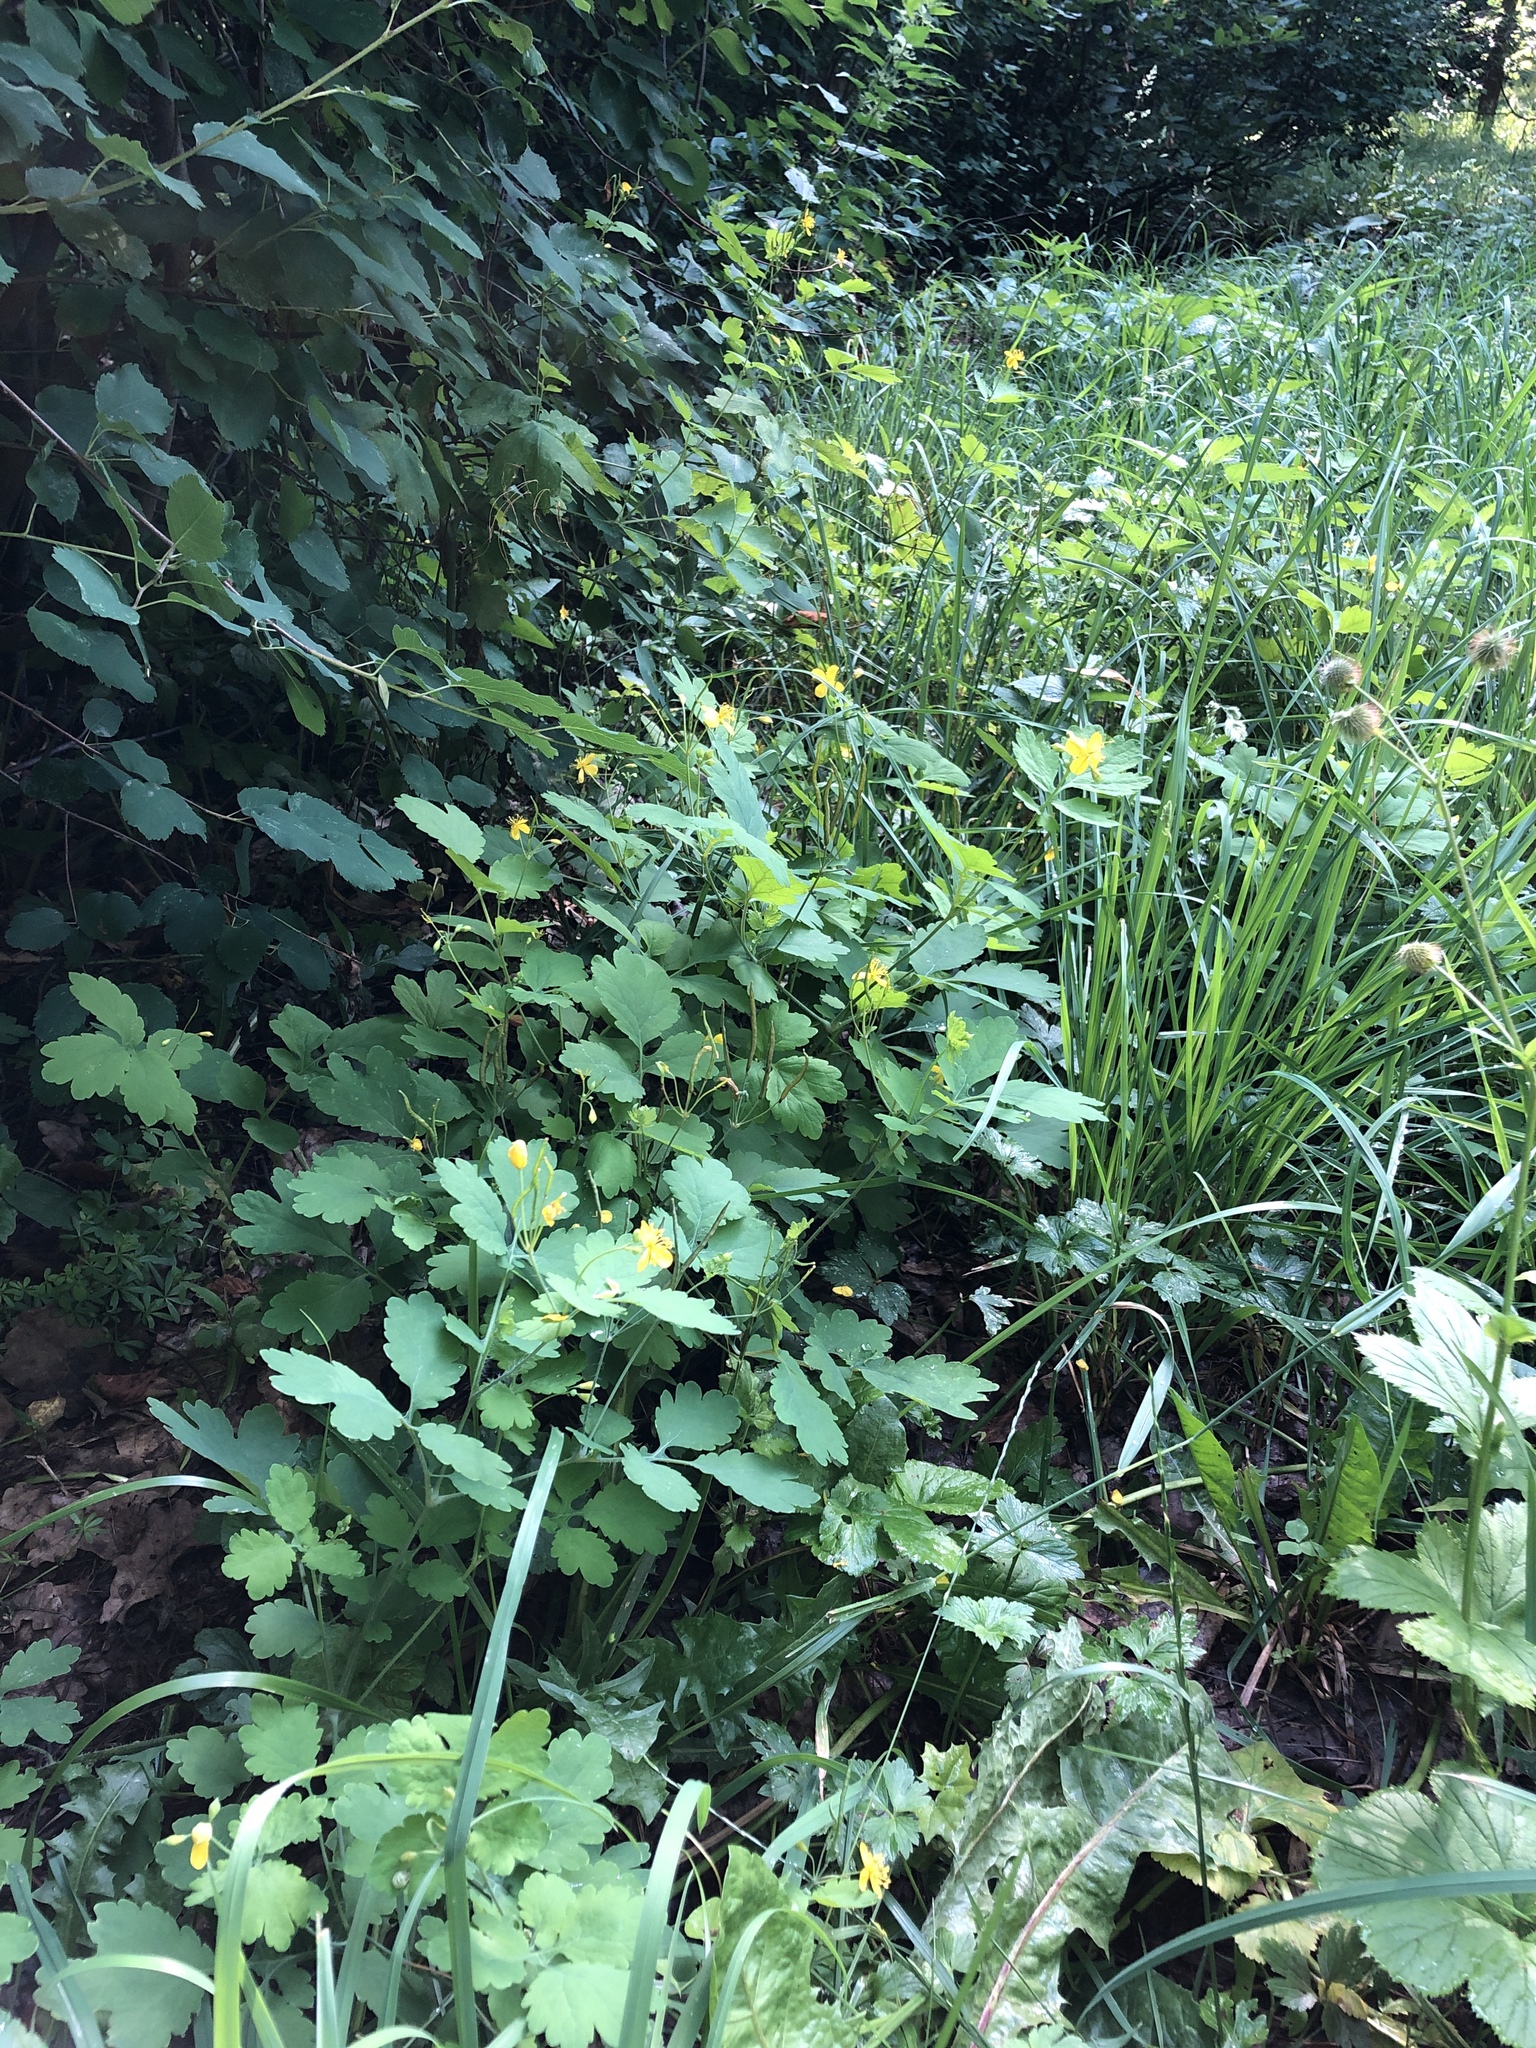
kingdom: Plantae
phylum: Tracheophyta
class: Magnoliopsida
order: Ranunculales
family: Papaveraceae
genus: Chelidonium
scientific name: Chelidonium majus
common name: Greater celandine
